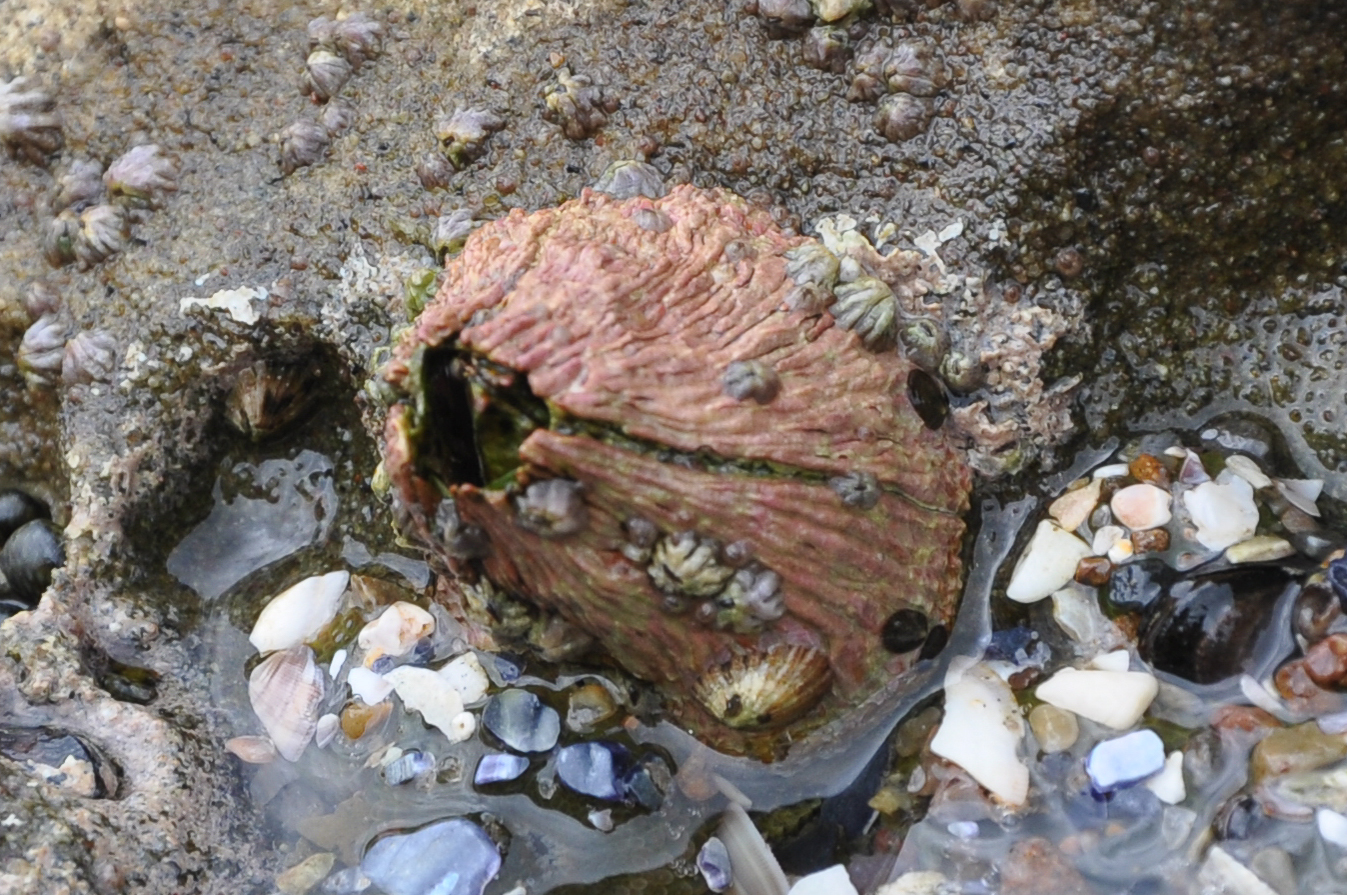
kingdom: Animalia
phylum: Arthropoda
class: Maxillopoda
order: Sessilia
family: Tetraclitidae
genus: Tetraclita
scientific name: Tetraclita rubescens
